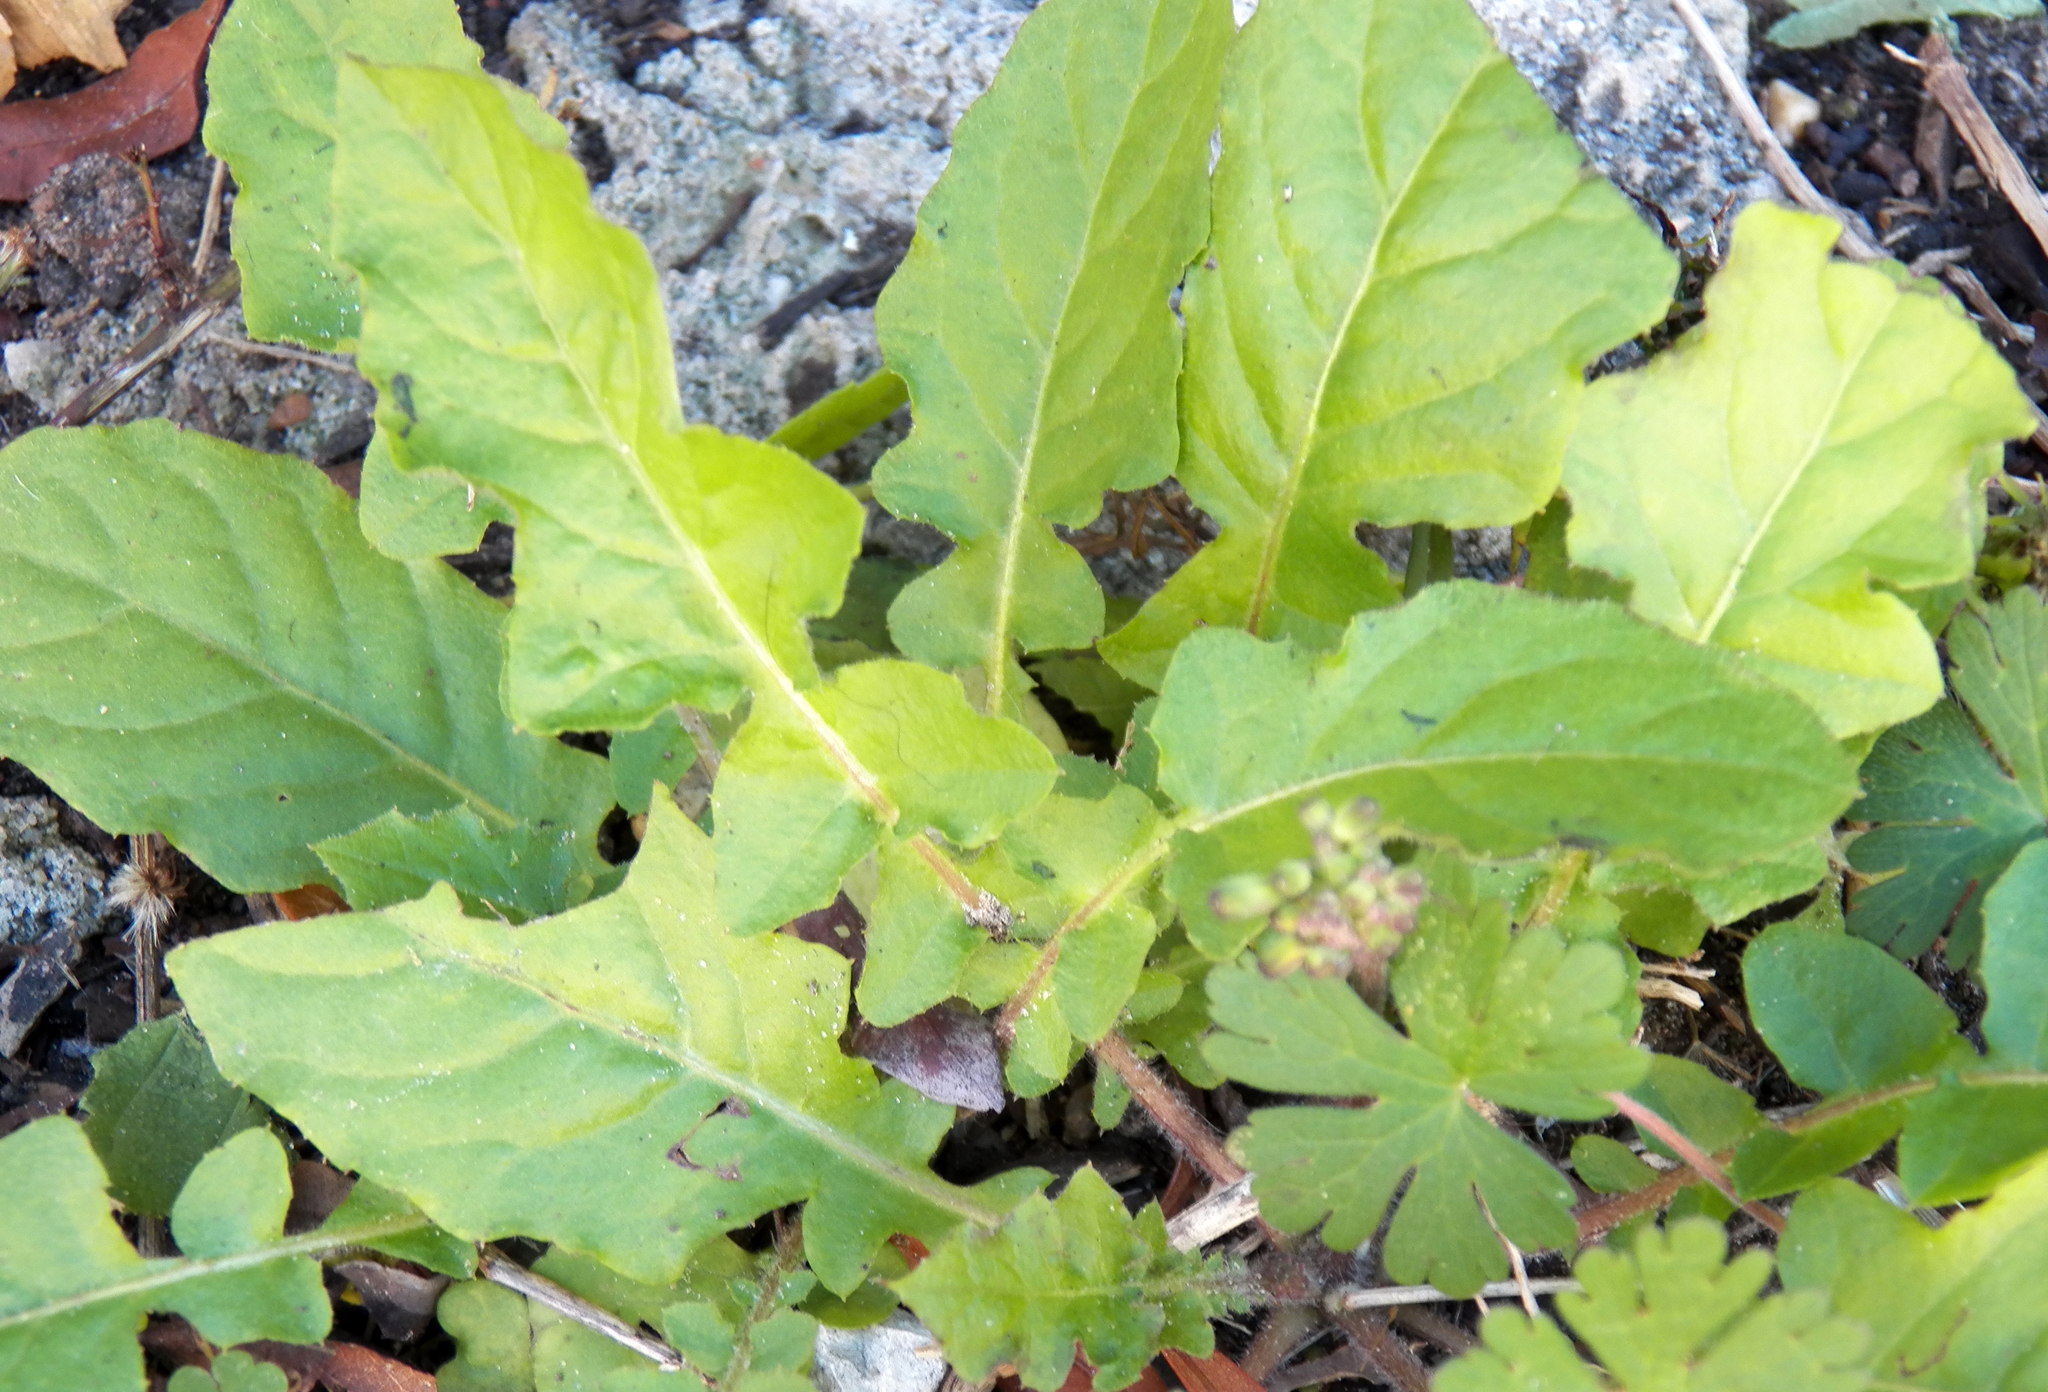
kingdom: Plantae
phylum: Tracheophyta
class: Magnoliopsida
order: Asterales
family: Asteraceae
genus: Youngia
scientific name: Youngia japonica
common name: Oriental false hawksbeard
